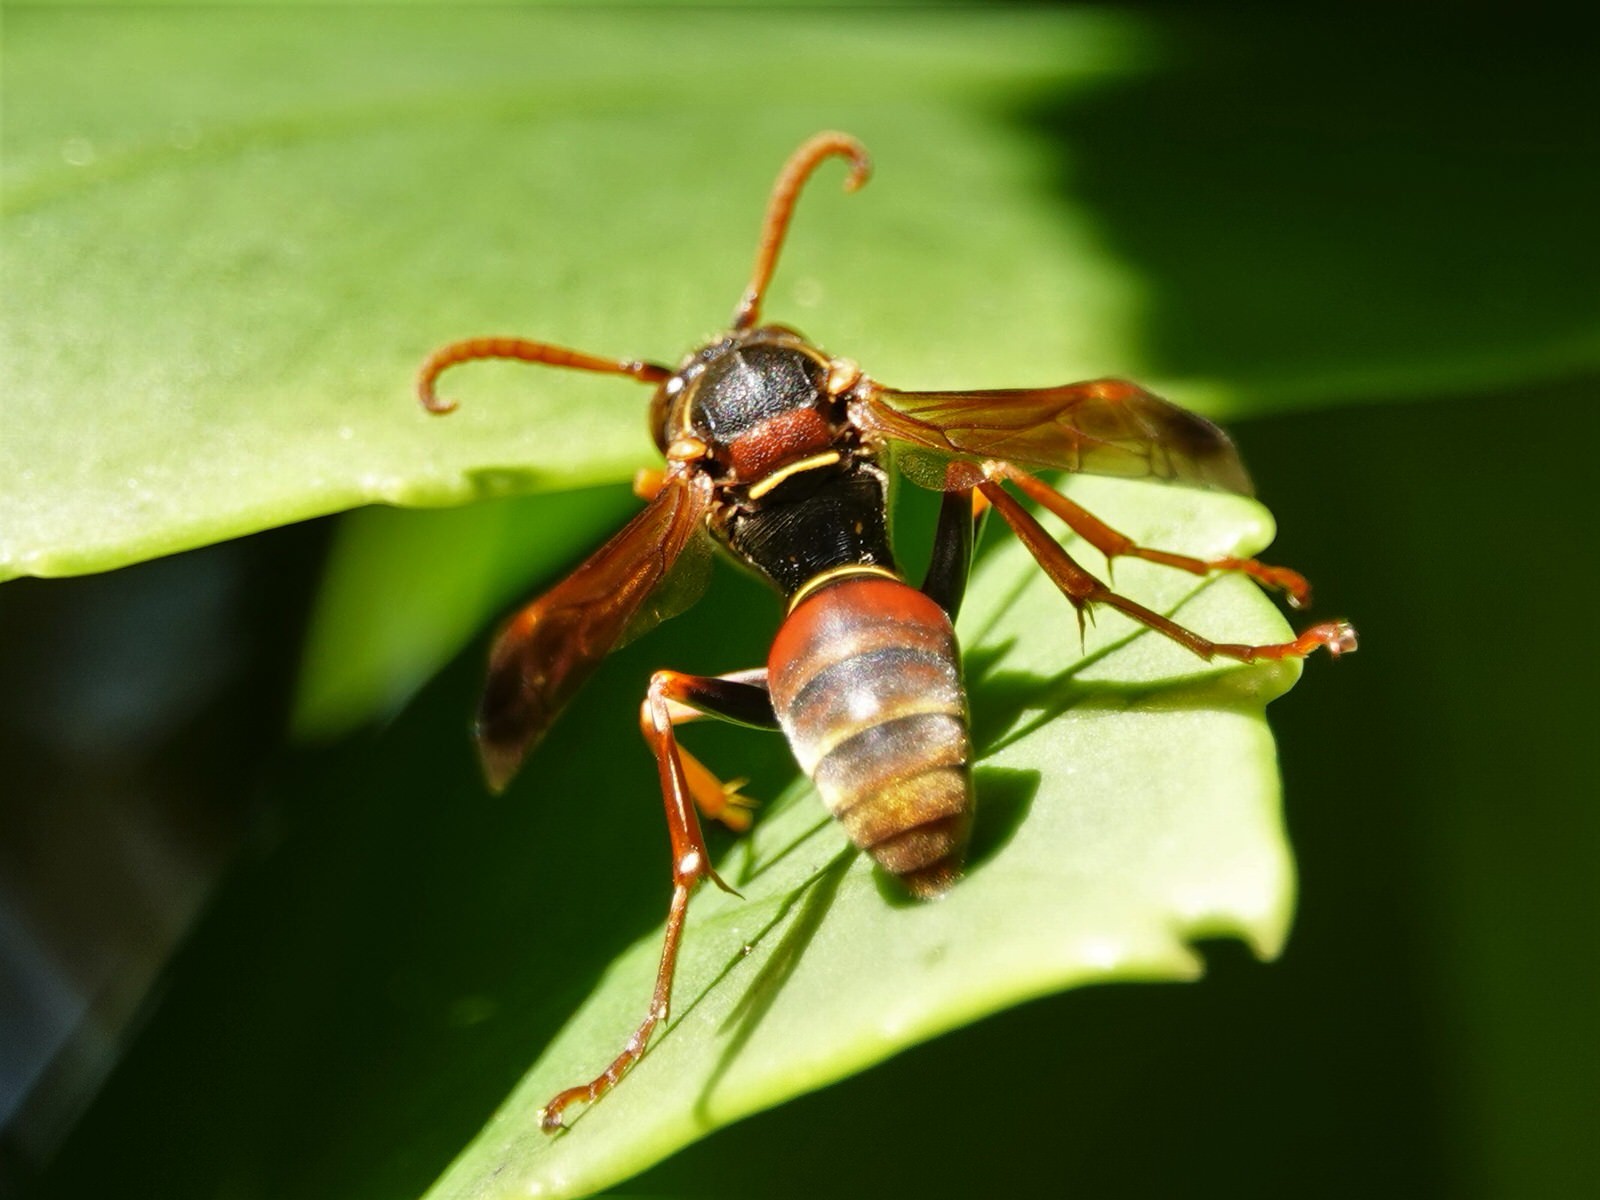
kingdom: Animalia
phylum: Arthropoda
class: Insecta
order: Hymenoptera
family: Eumenidae
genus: Polistes
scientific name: Polistes humilis
